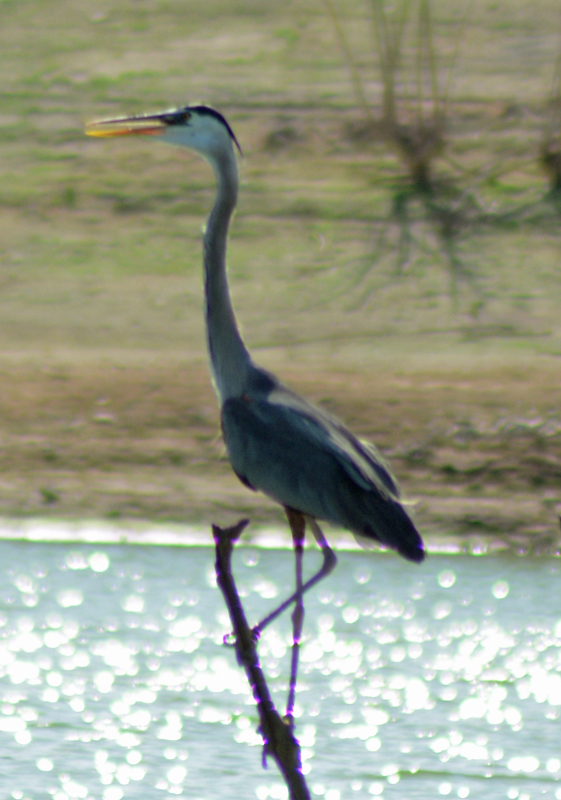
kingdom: Animalia
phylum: Chordata
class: Aves
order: Pelecaniformes
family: Ardeidae
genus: Ardea
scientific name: Ardea herodias
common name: Great blue heron
